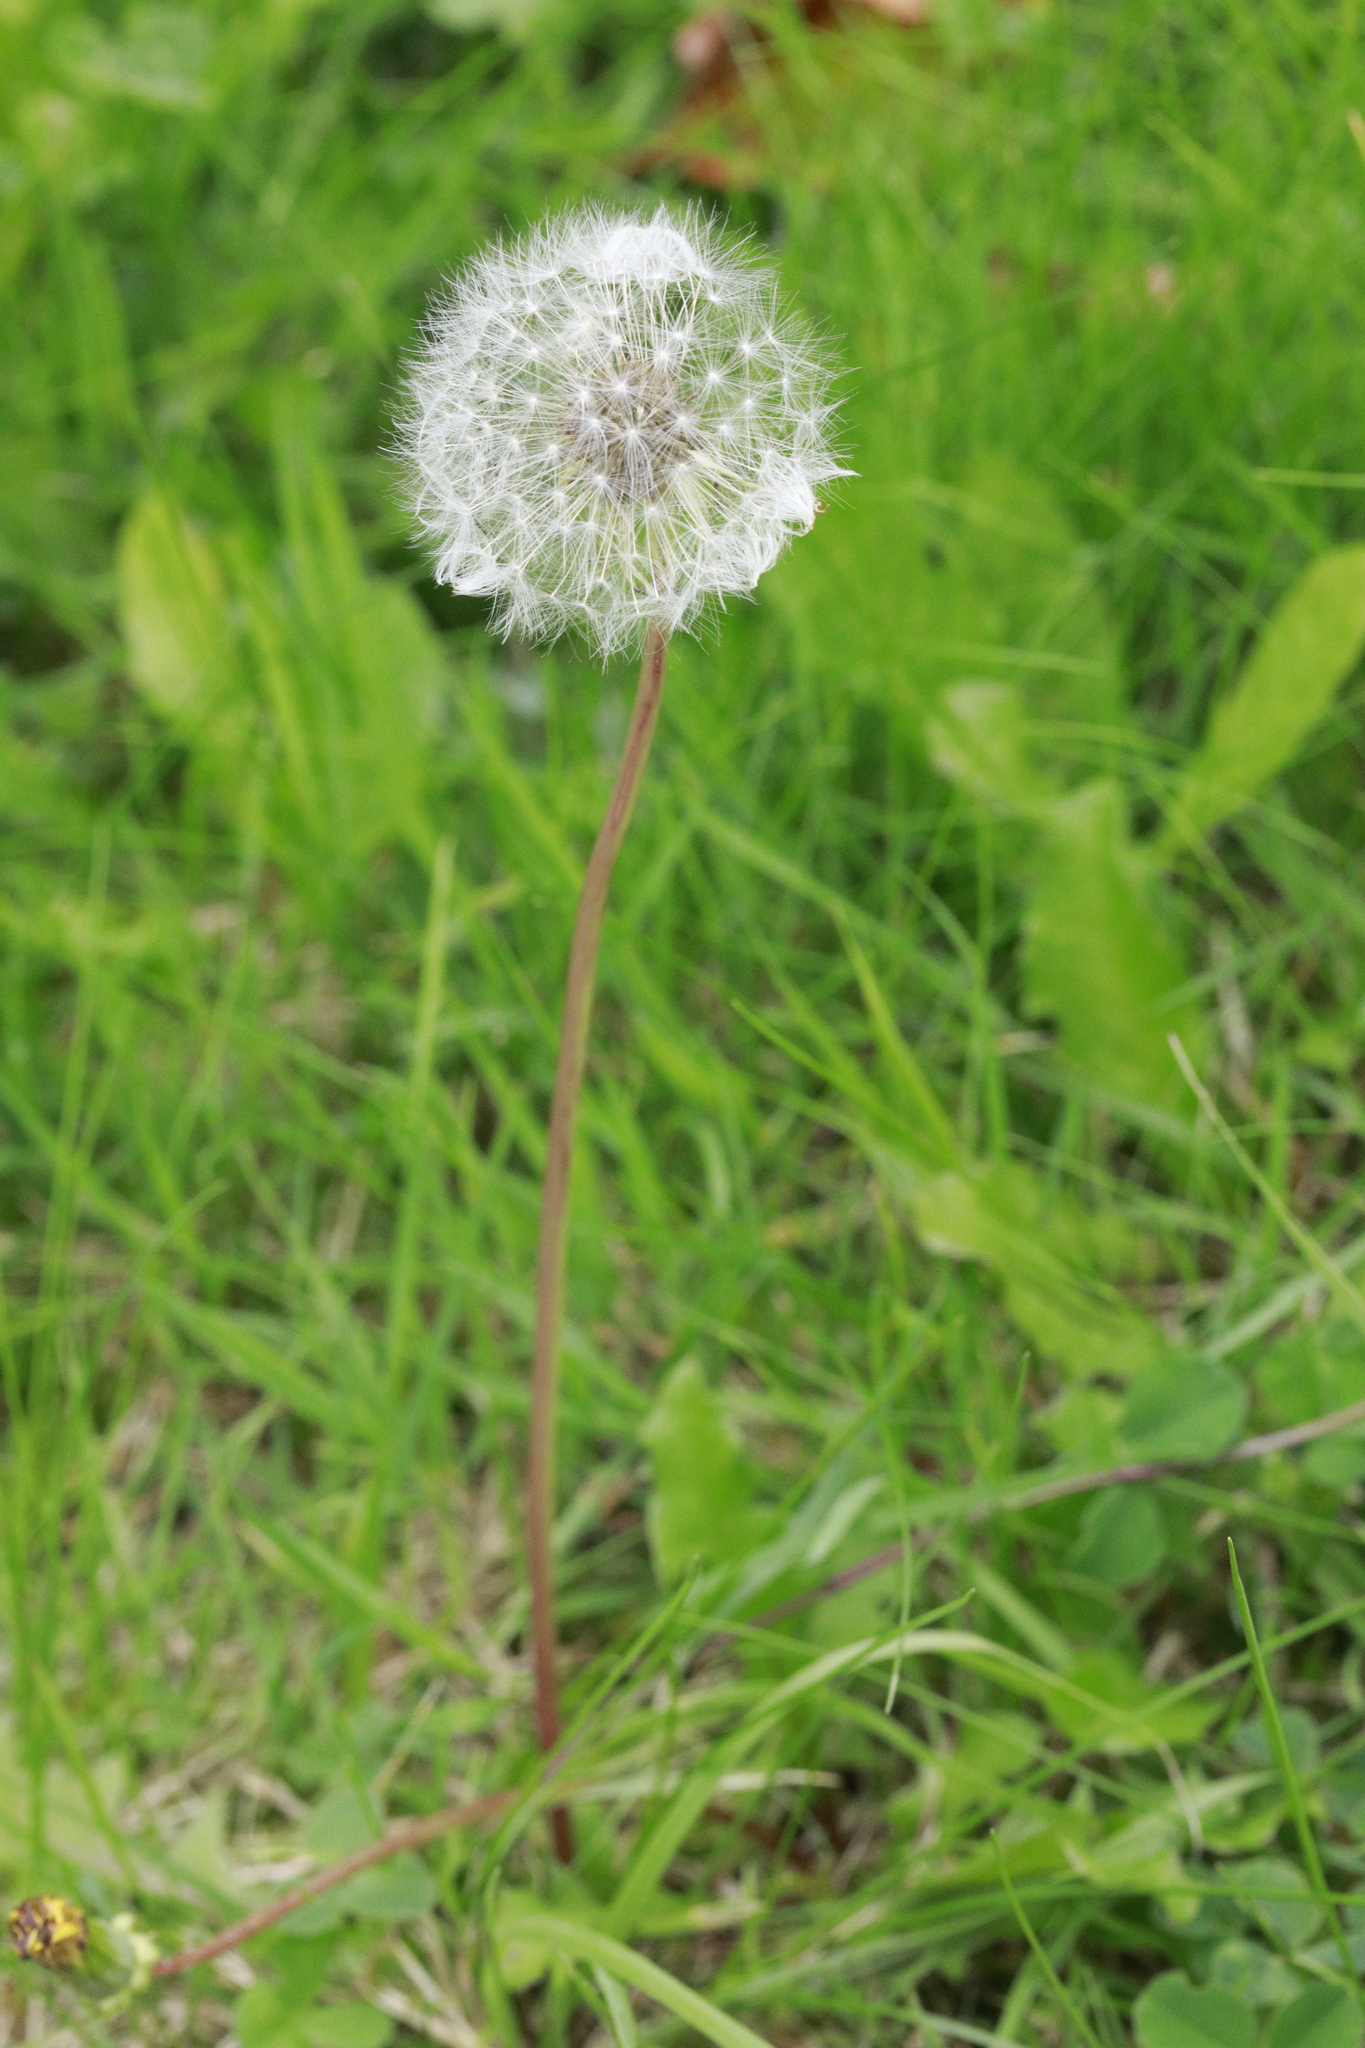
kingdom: Plantae
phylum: Tracheophyta
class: Magnoliopsida
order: Asterales
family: Asteraceae
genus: Taraxacum
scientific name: Taraxacum officinale
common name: Common dandelion
